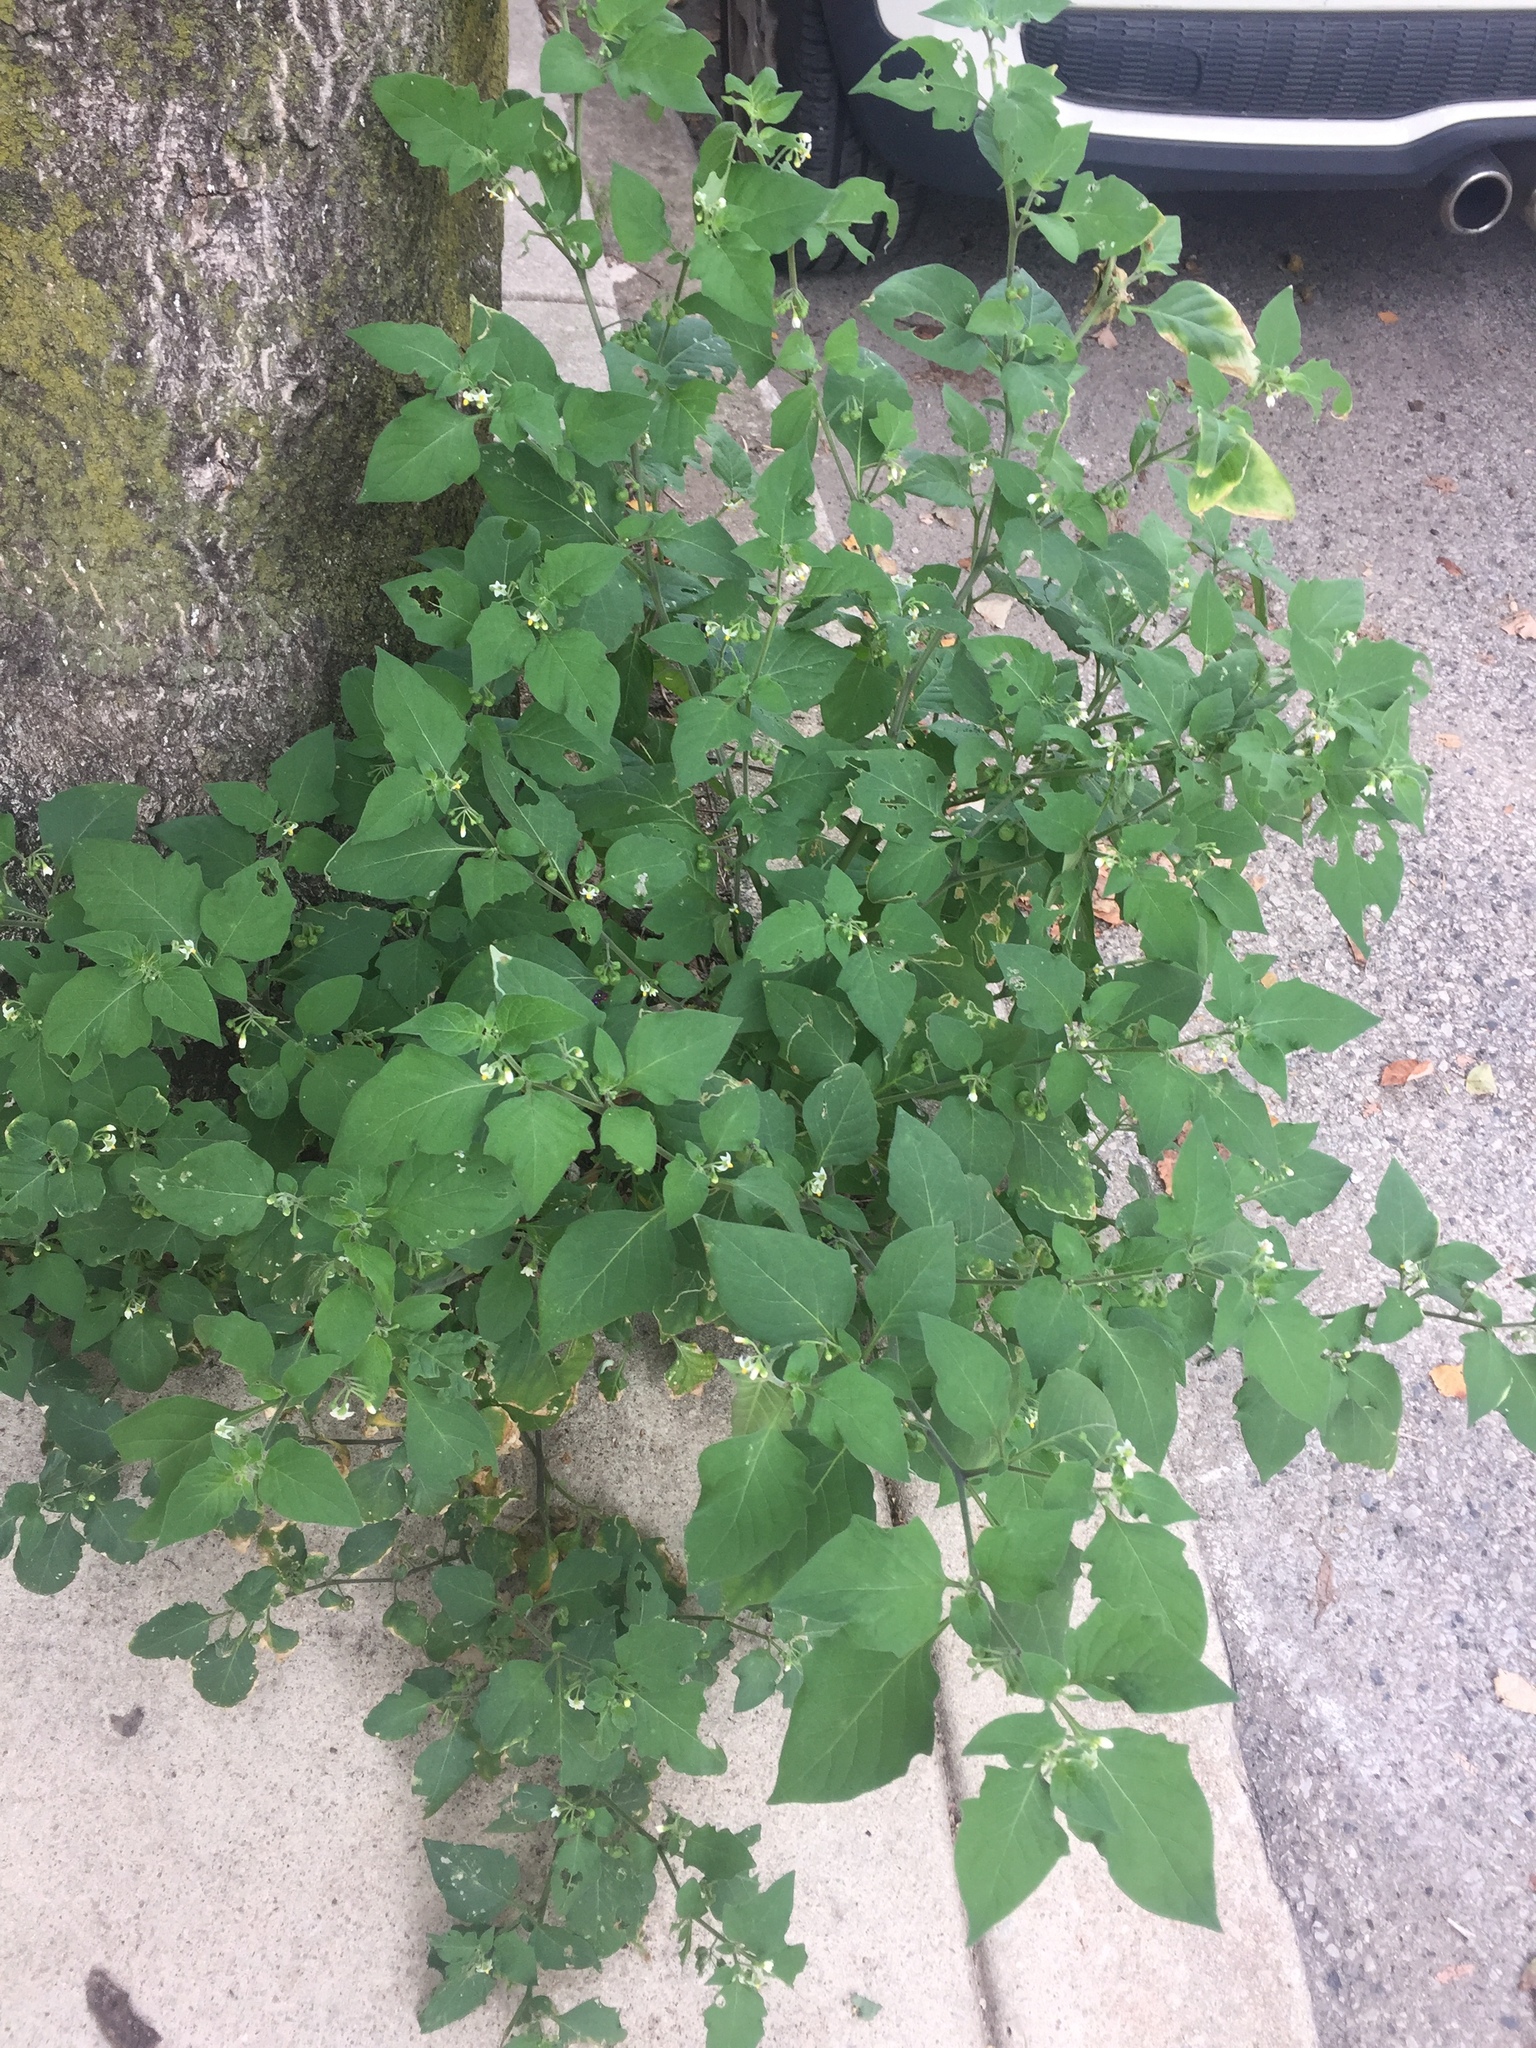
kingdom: Plantae
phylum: Tracheophyta
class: Magnoliopsida
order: Solanales
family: Solanaceae
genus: Solanum
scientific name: Solanum nigrum
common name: Black nightshade
